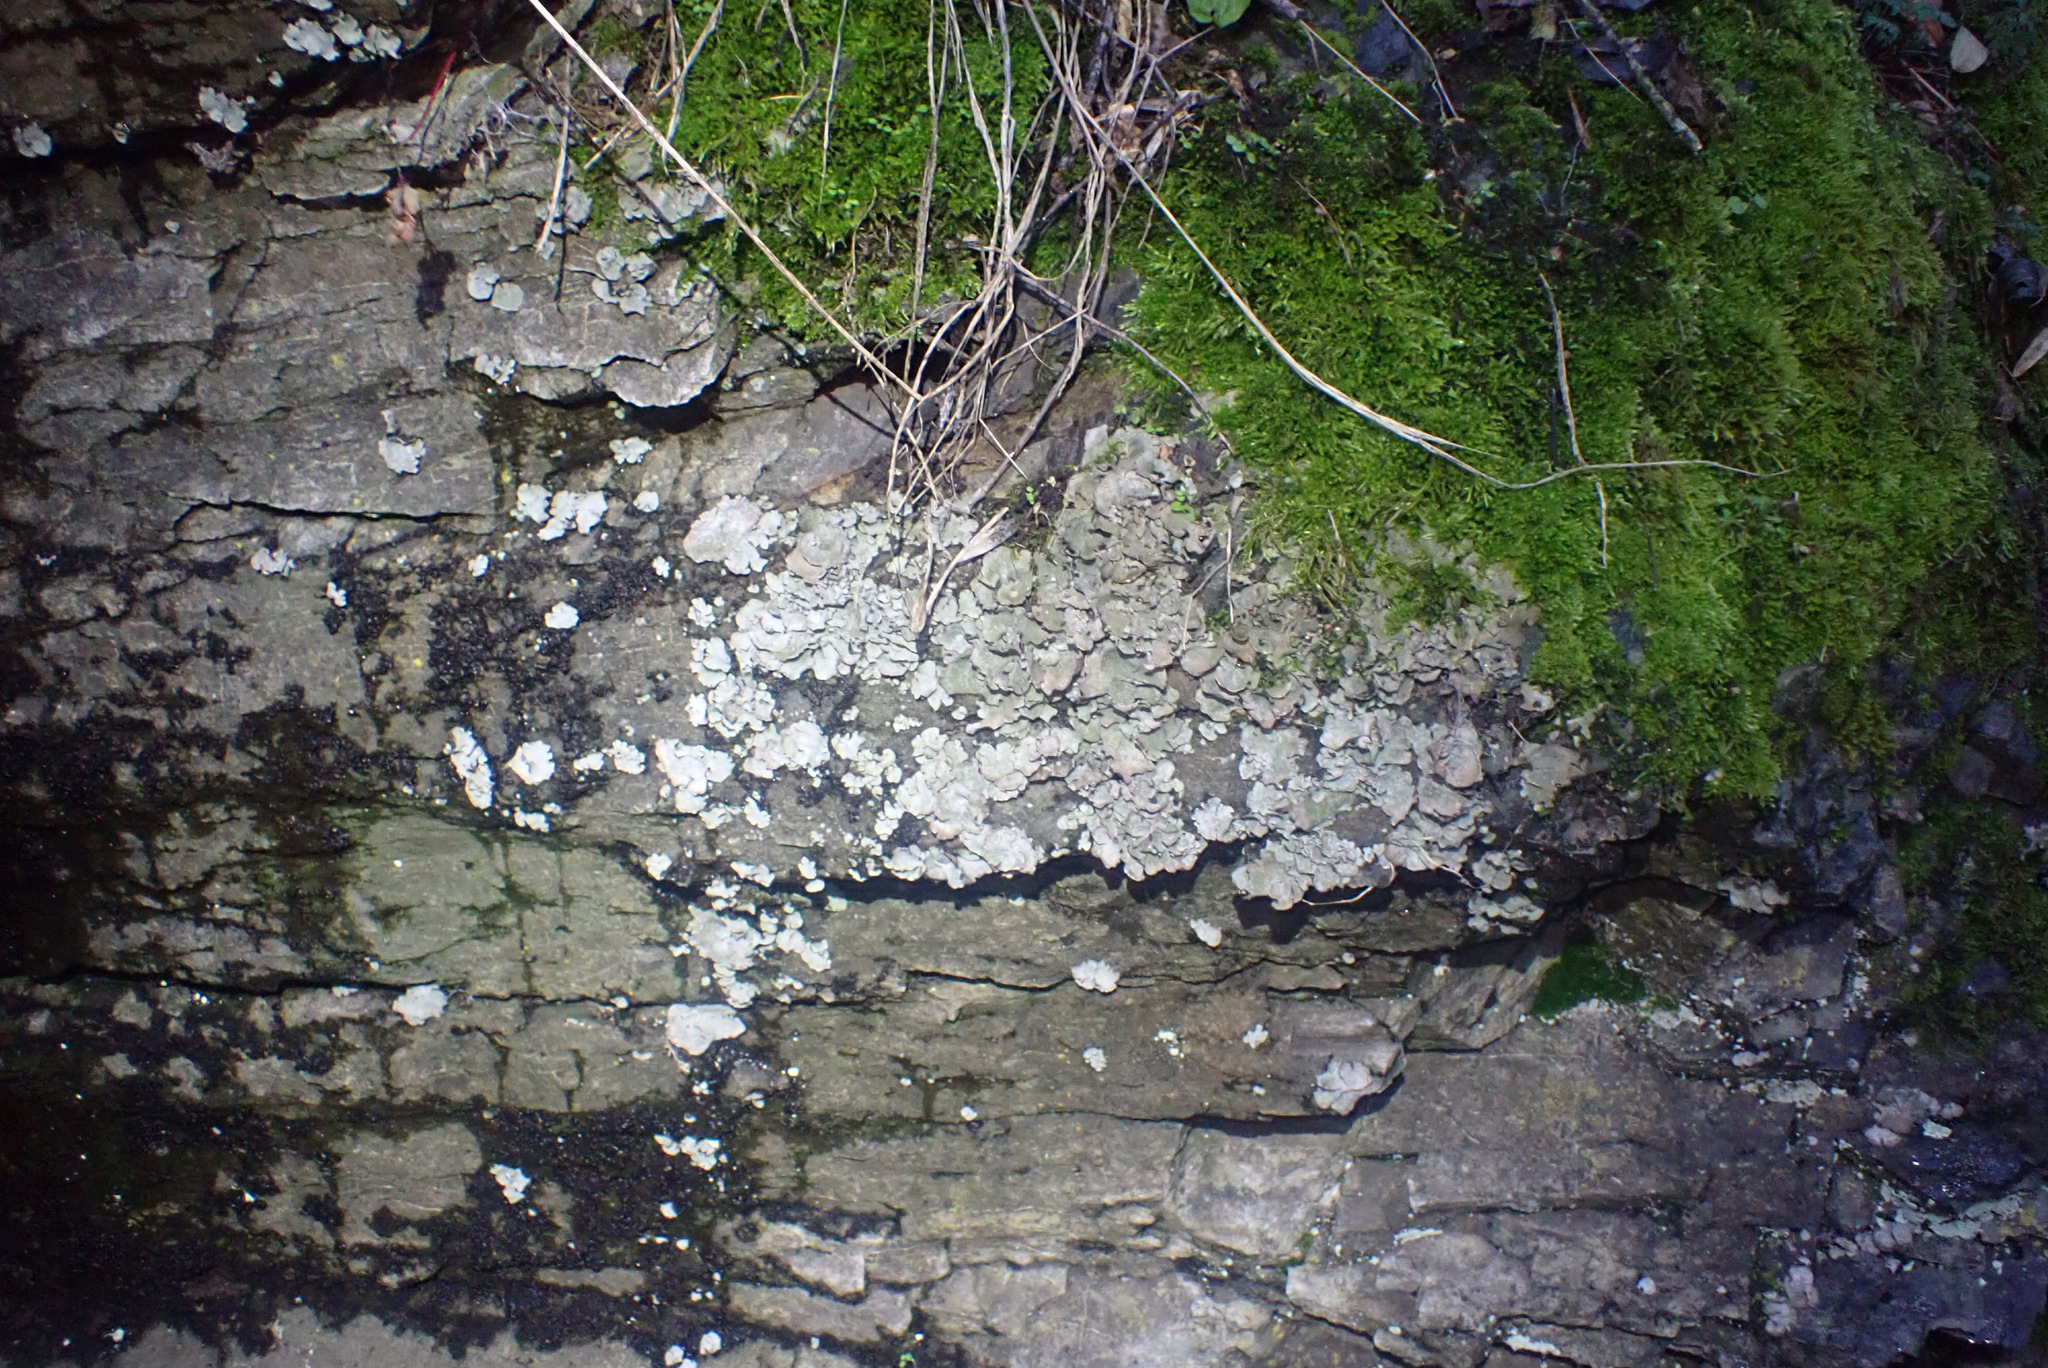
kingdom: Fungi
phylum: Ascomycota
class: Eurotiomycetes
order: Verrucariales
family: Verrucariaceae
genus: Dermatocarpon
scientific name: Dermatocarpon miniatum
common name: Leather lichen
